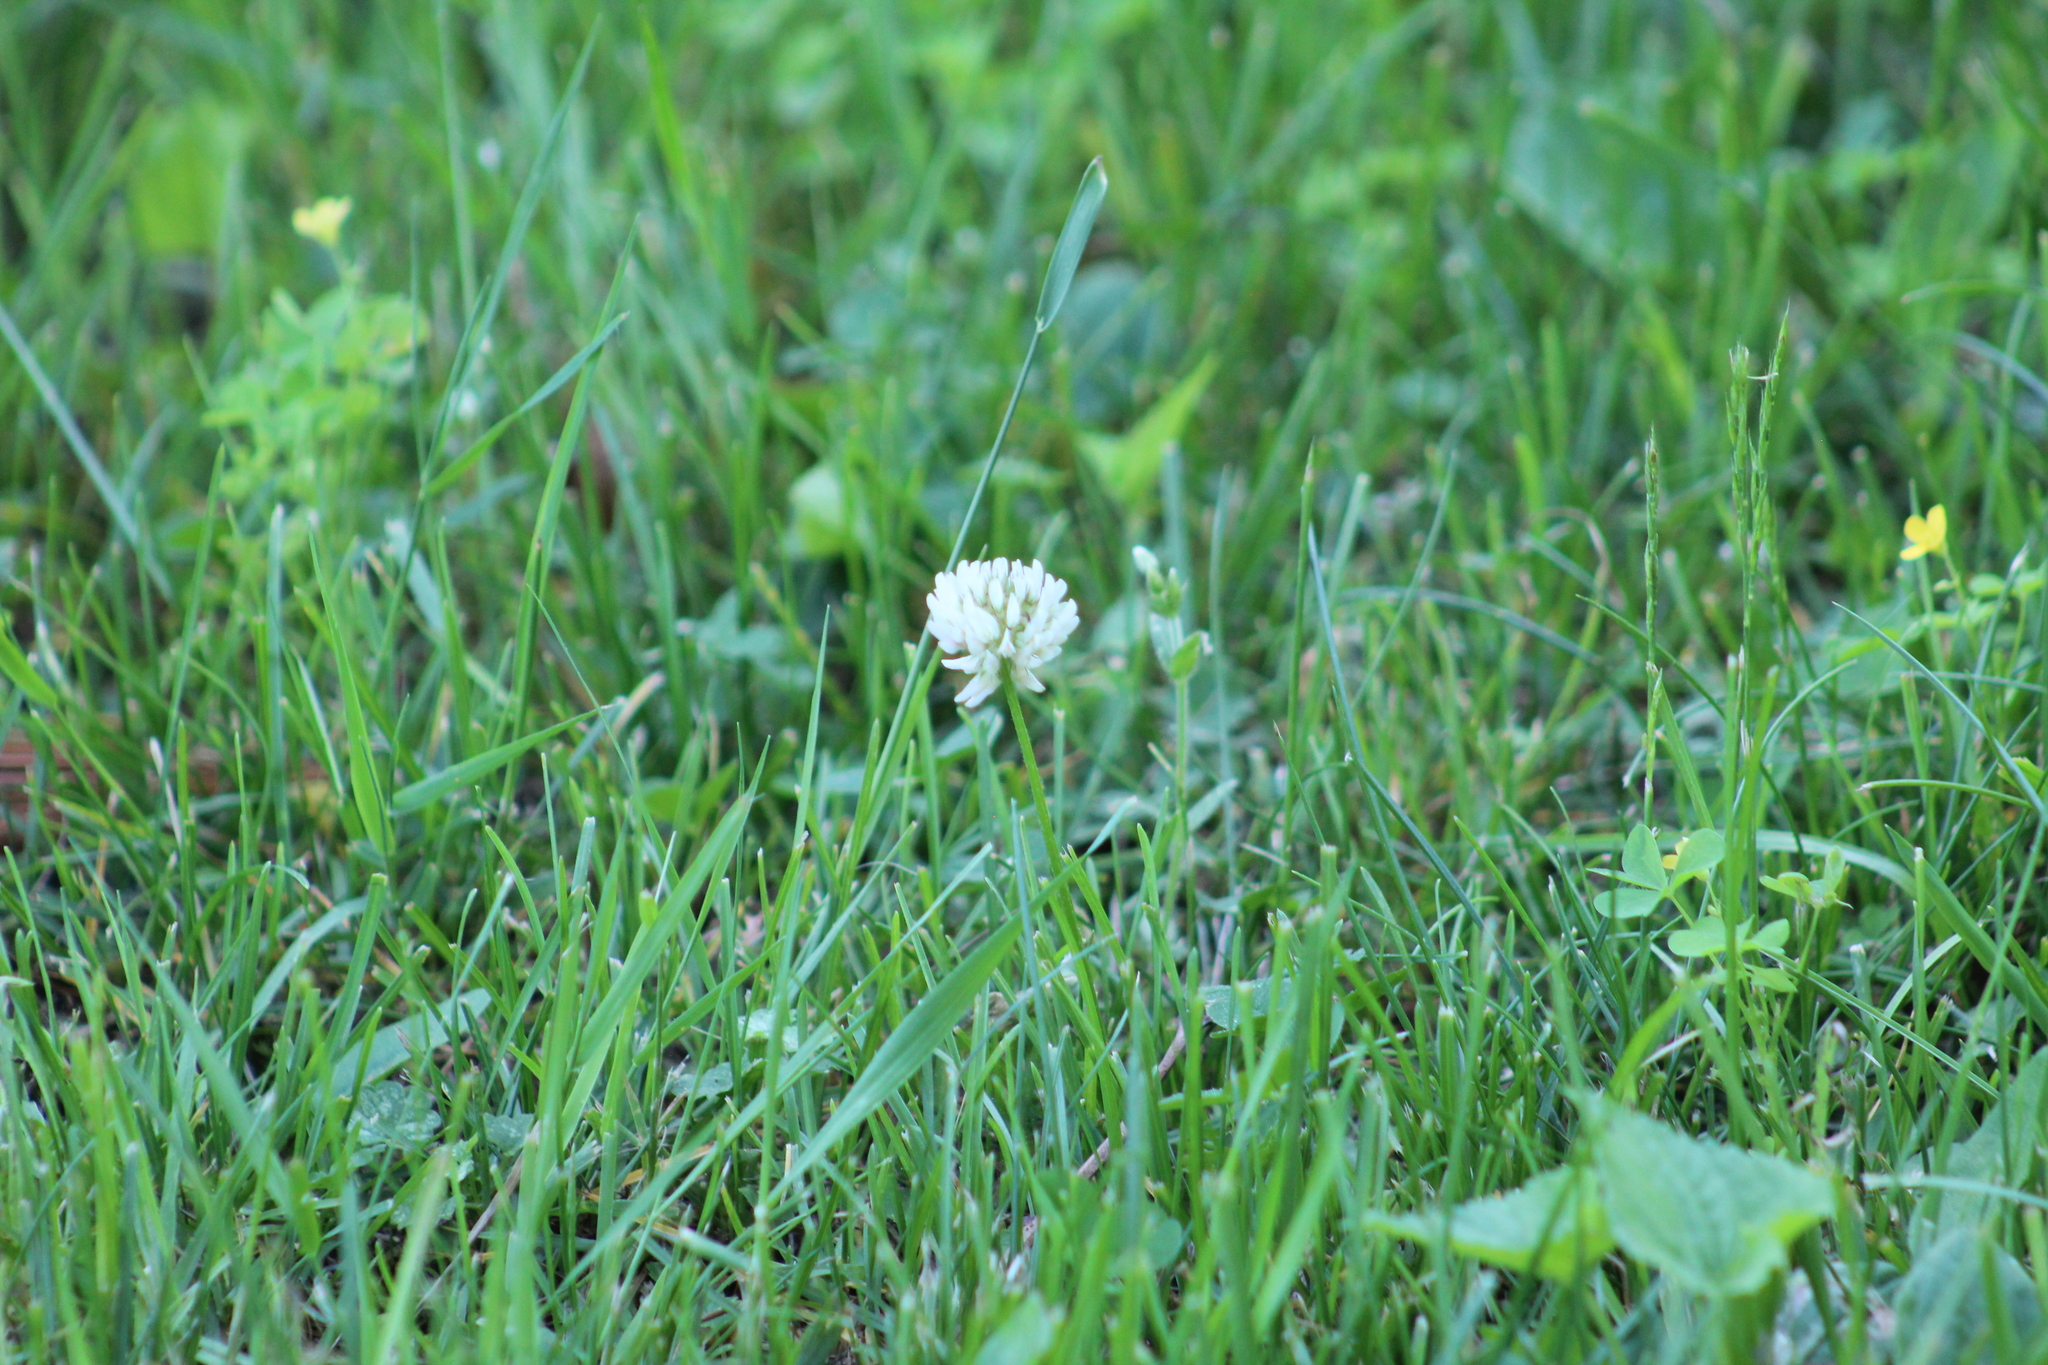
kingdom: Plantae
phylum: Tracheophyta
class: Magnoliopsida
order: Fabales
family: Fabaceae
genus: Trifolium
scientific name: Trifolium repens
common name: White clover
